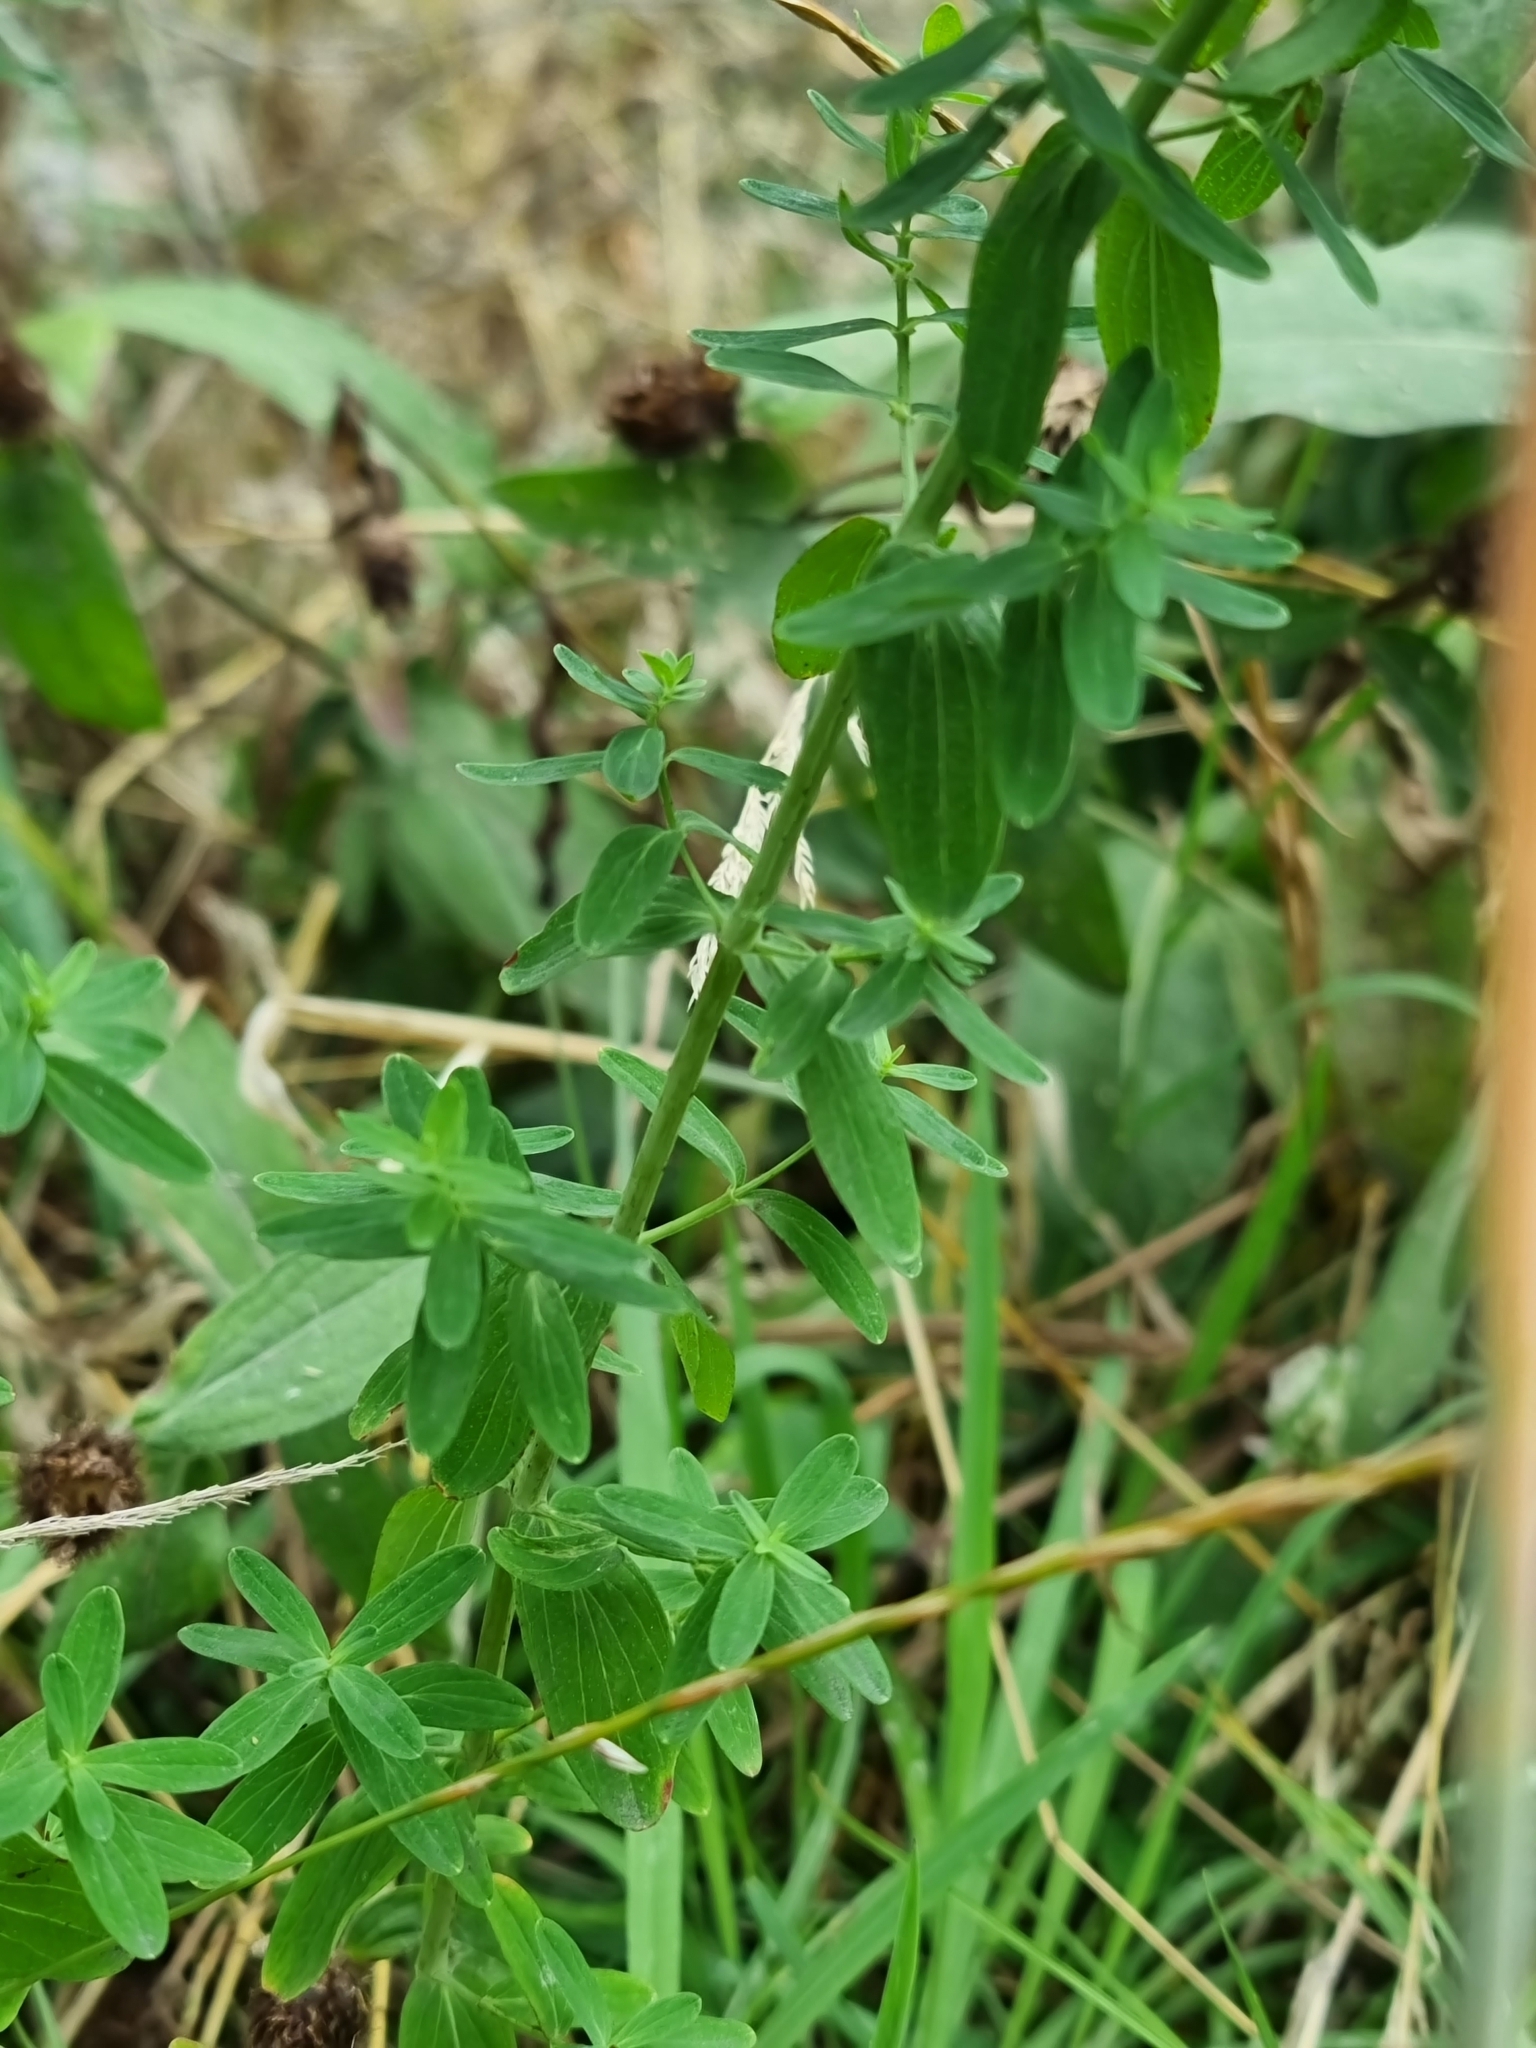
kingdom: Plantae
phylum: Tracheophyta
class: Magnoliopsida
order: Malpighiales
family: Hypericaceae
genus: Hypericum
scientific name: Hypericum perforatum
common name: Common st. johnswort
